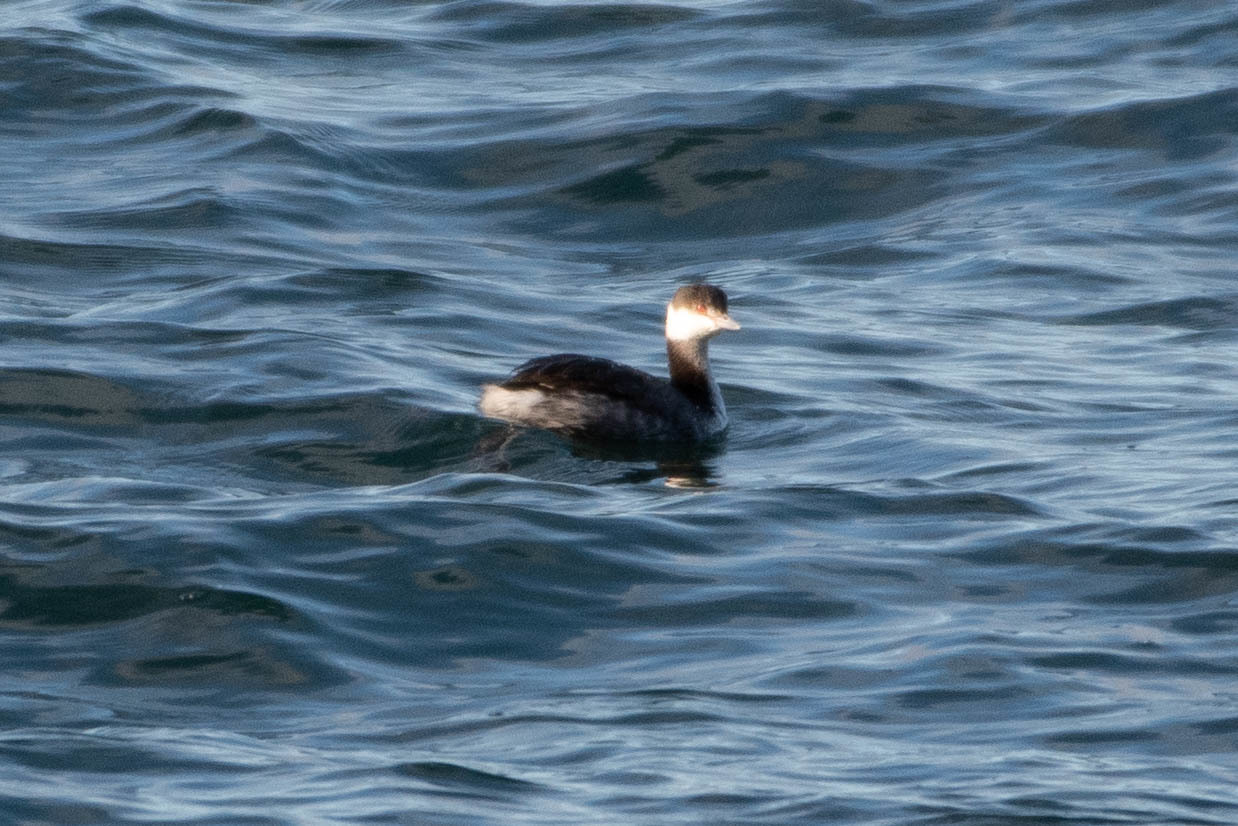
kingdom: Animalia
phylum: Chordata
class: Aves
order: Podicipediformes
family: Podicipedidae
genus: Podiceps
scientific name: Podiceps auritus
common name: Horned grebe
